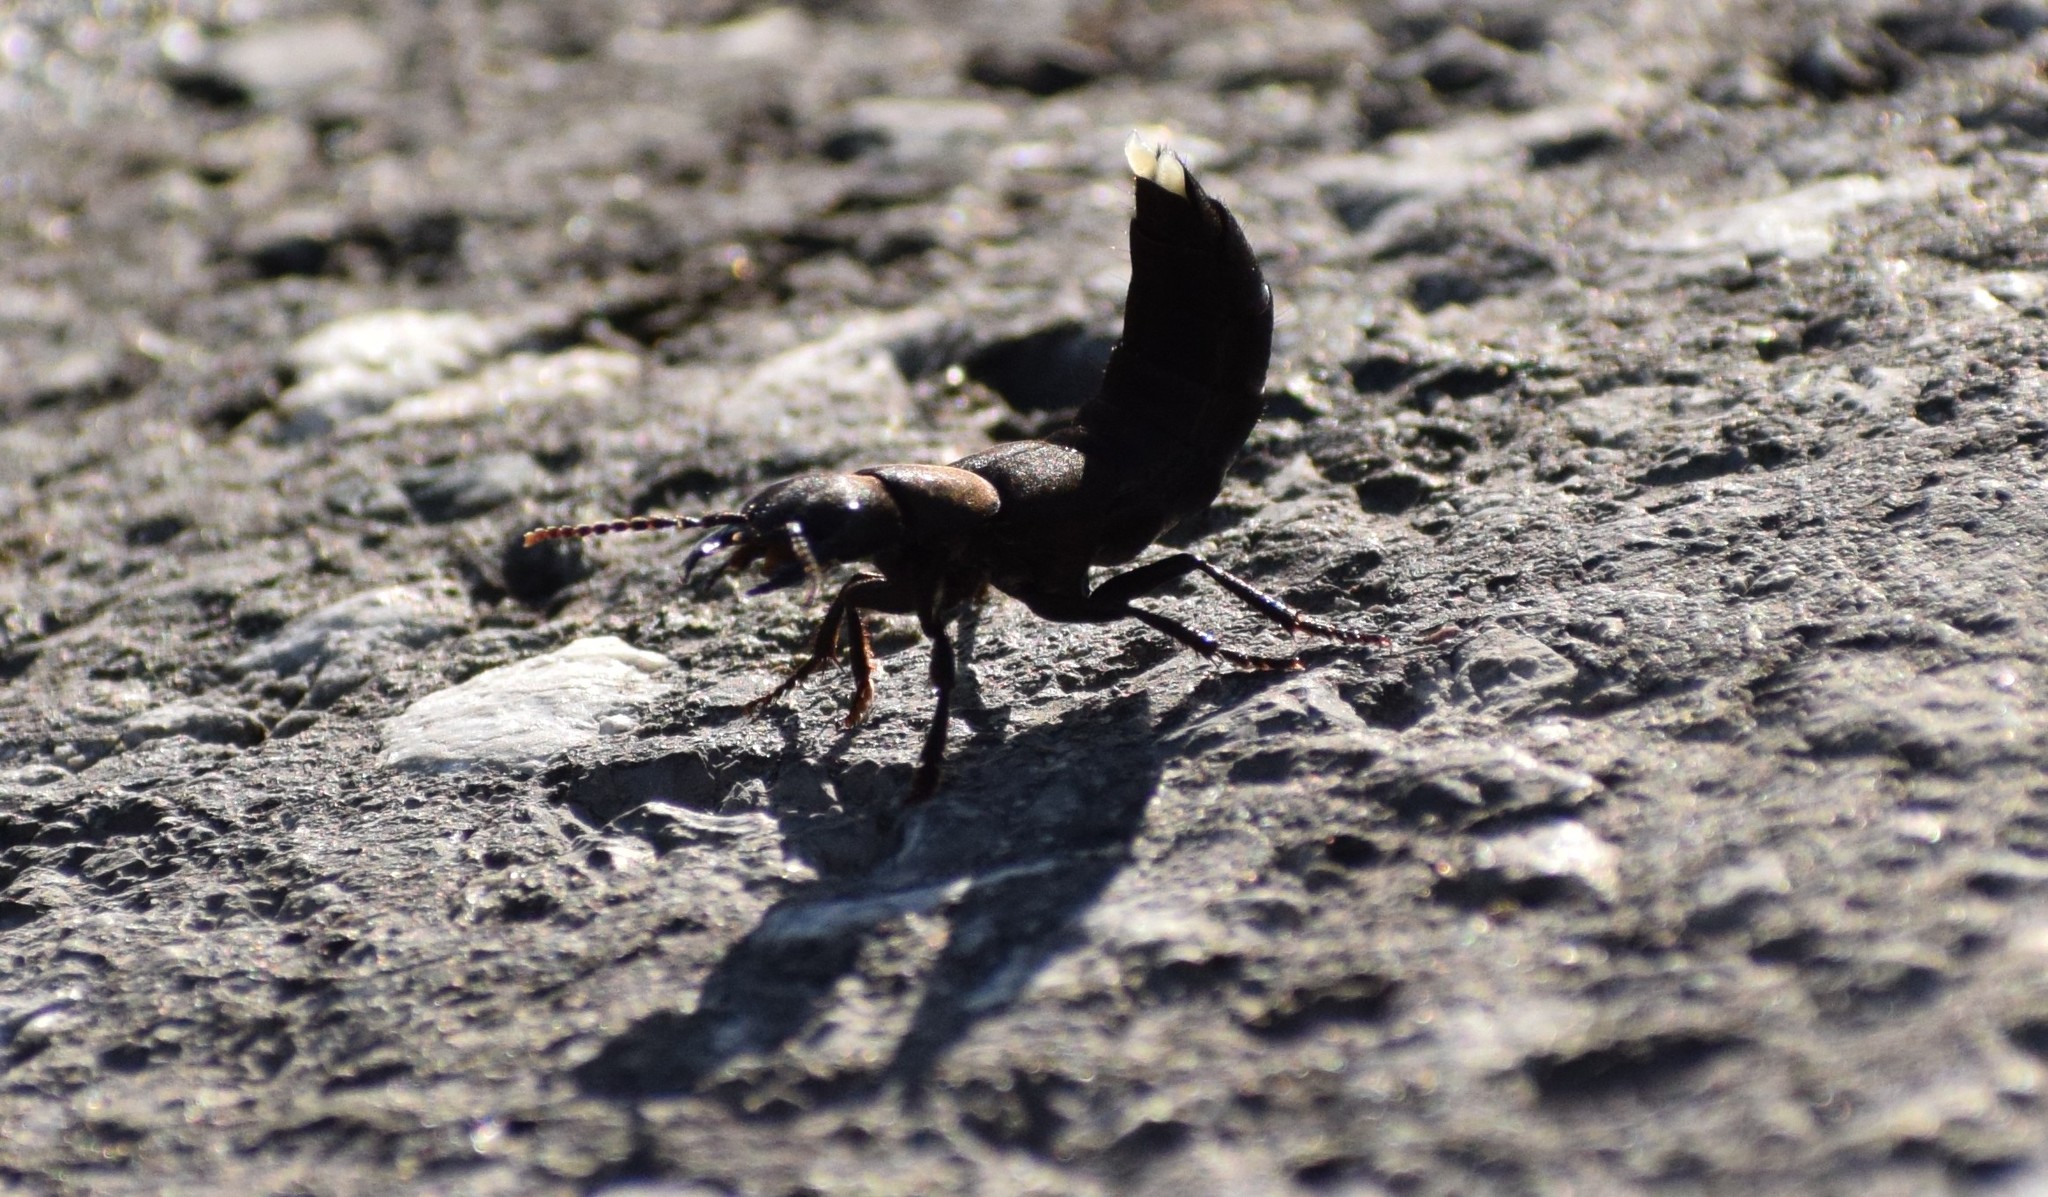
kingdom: Animalia
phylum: Arthropoda
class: Insecta
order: Coleoptera
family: Staphylinidae
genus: Ocypus
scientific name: Ocypus olens
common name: Devil's coach-horse
